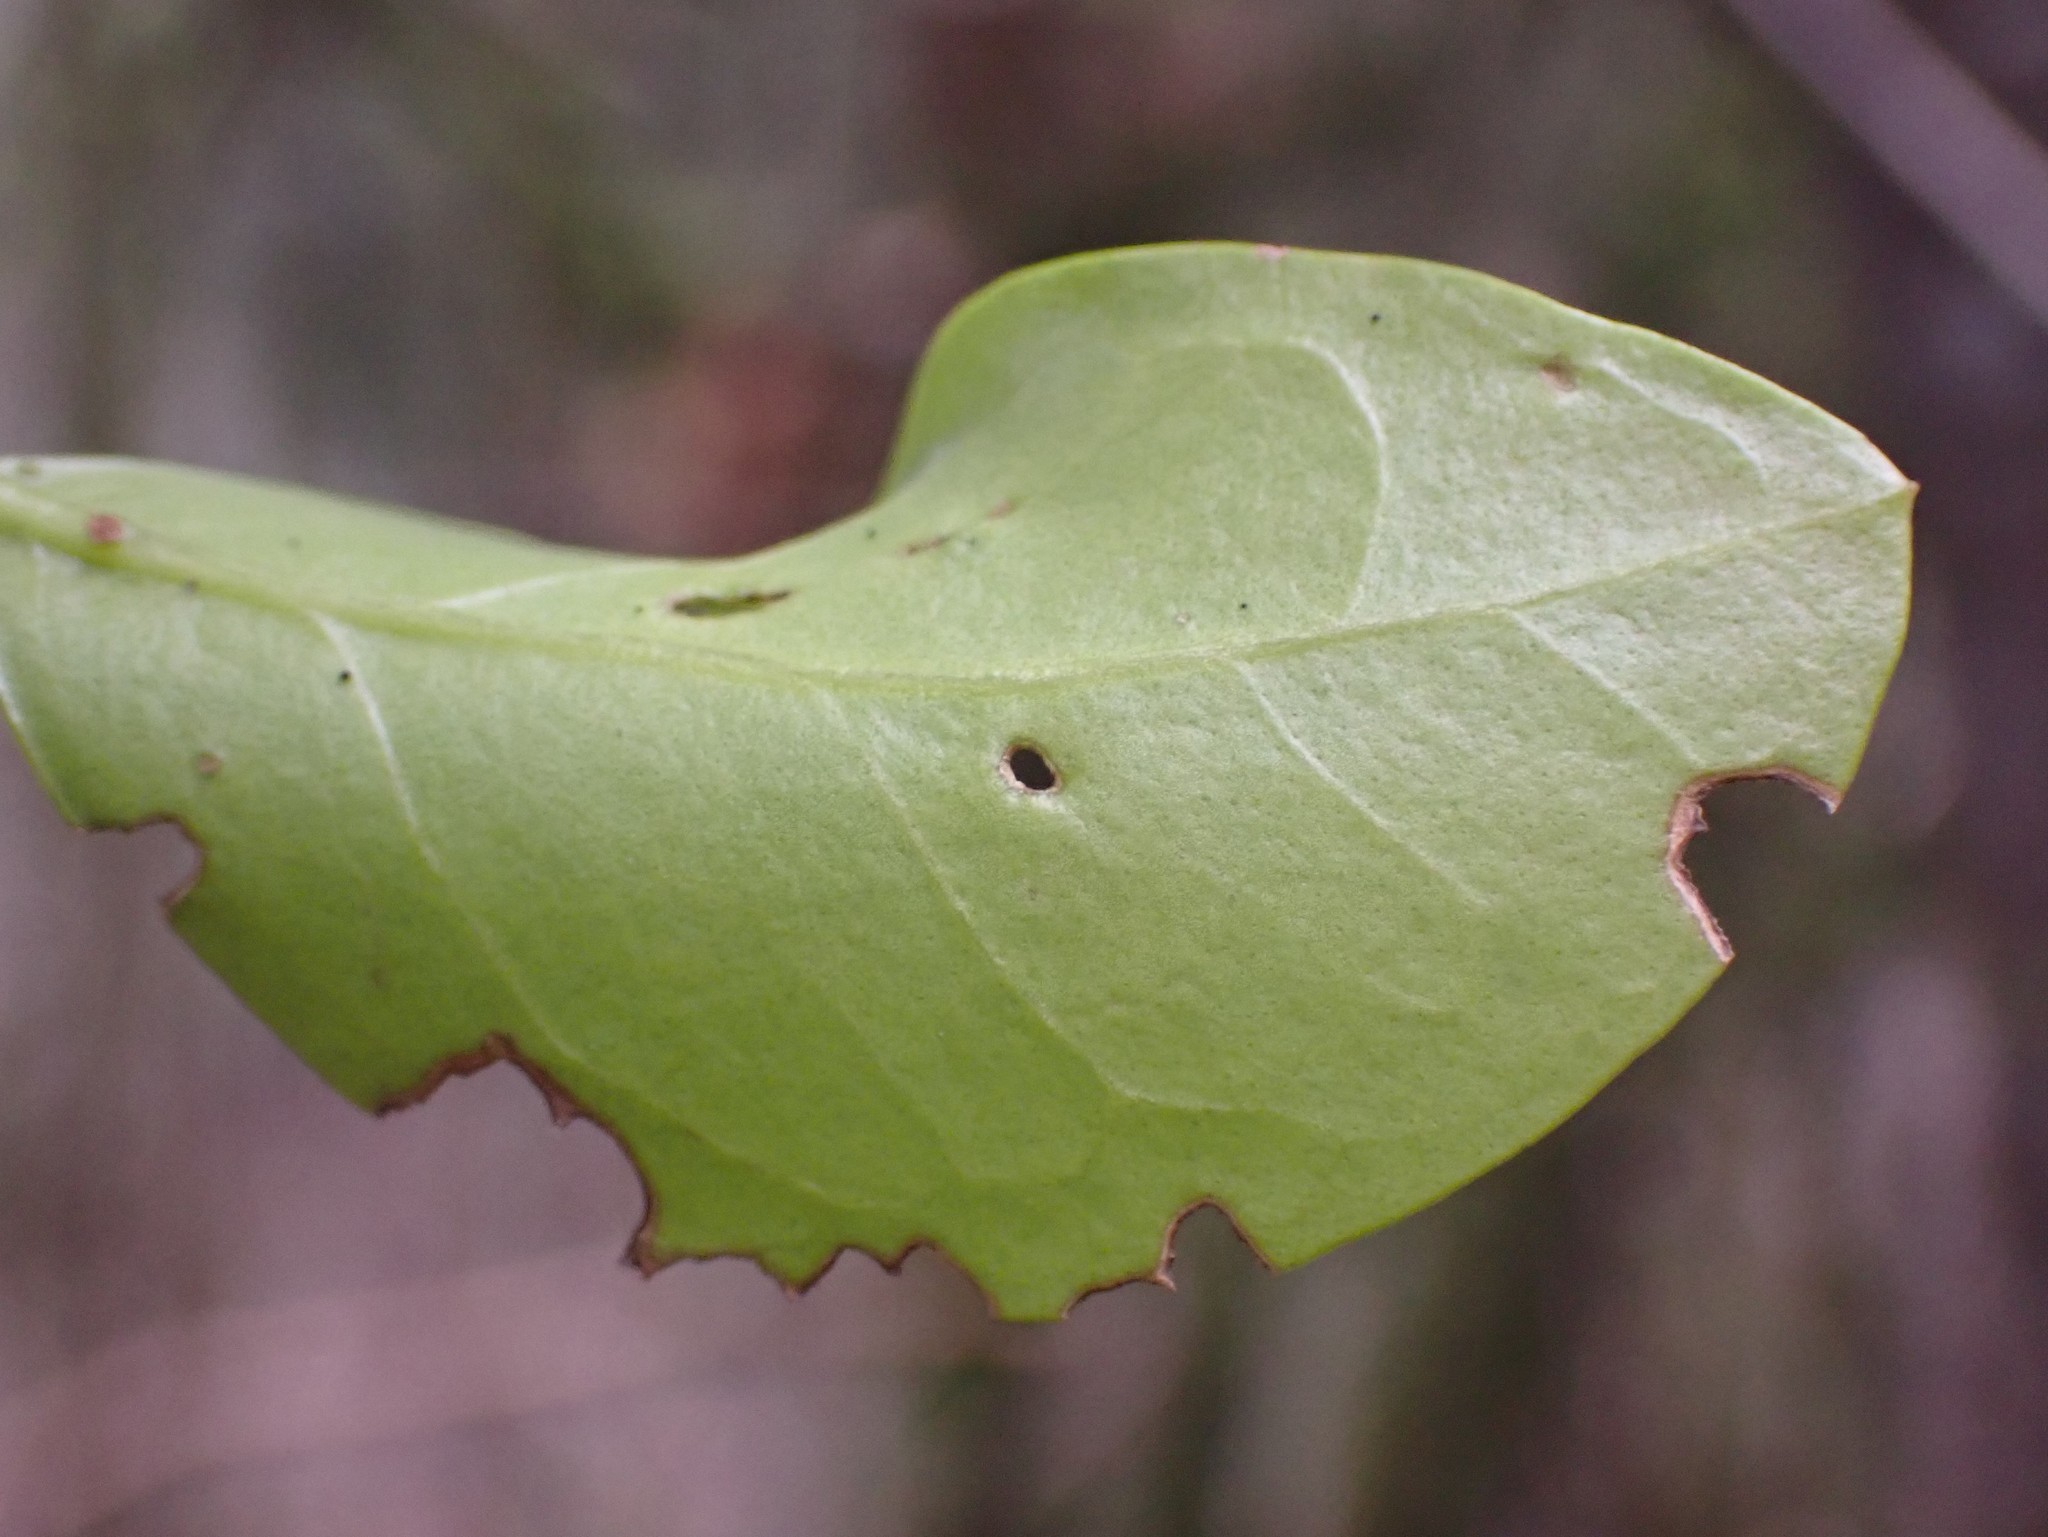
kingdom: Plantae
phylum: Tracheophyta
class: Magnoliopsida
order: Lamiales
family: Oleaceae
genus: Ligustrum
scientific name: Ligustrum ovalifolium
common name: California privet
